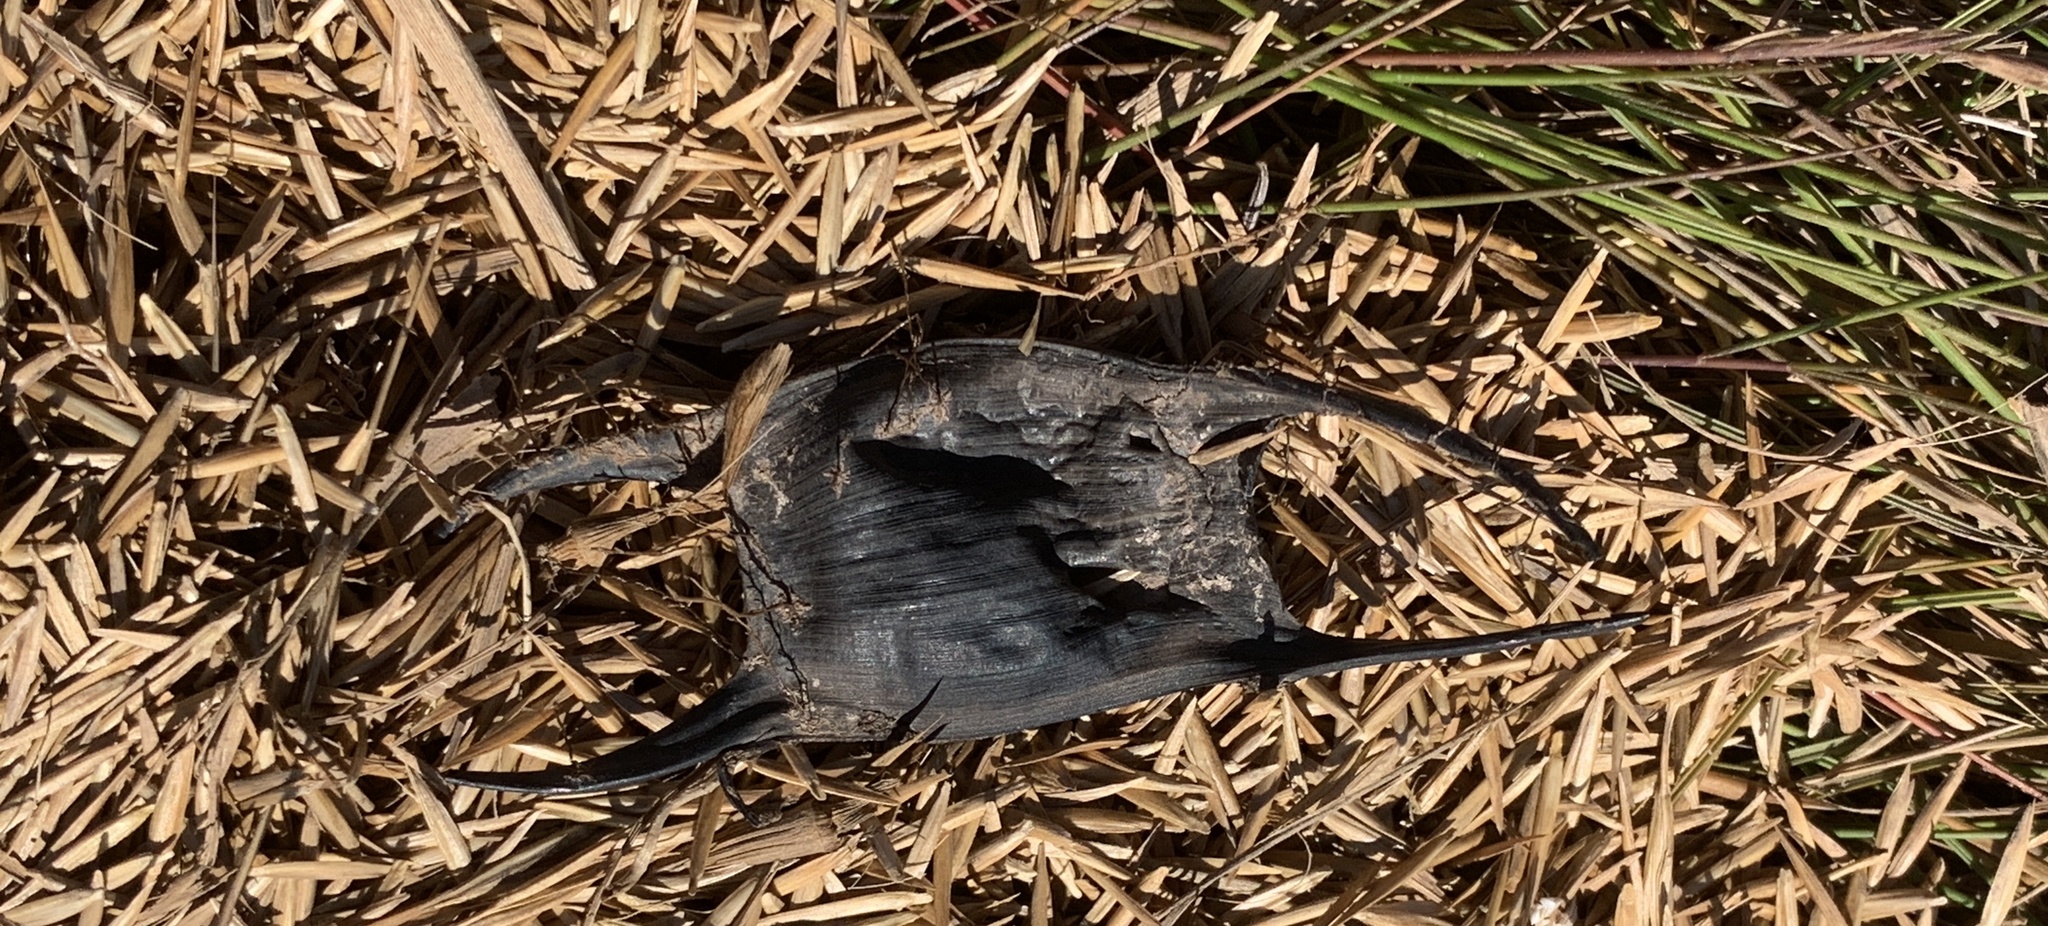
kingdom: Animalia
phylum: Chordata
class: Elasmobranchii
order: Rajiformes
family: Rajidae
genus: Leucoraja
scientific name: Leucoraja erinacea
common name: Little skate
